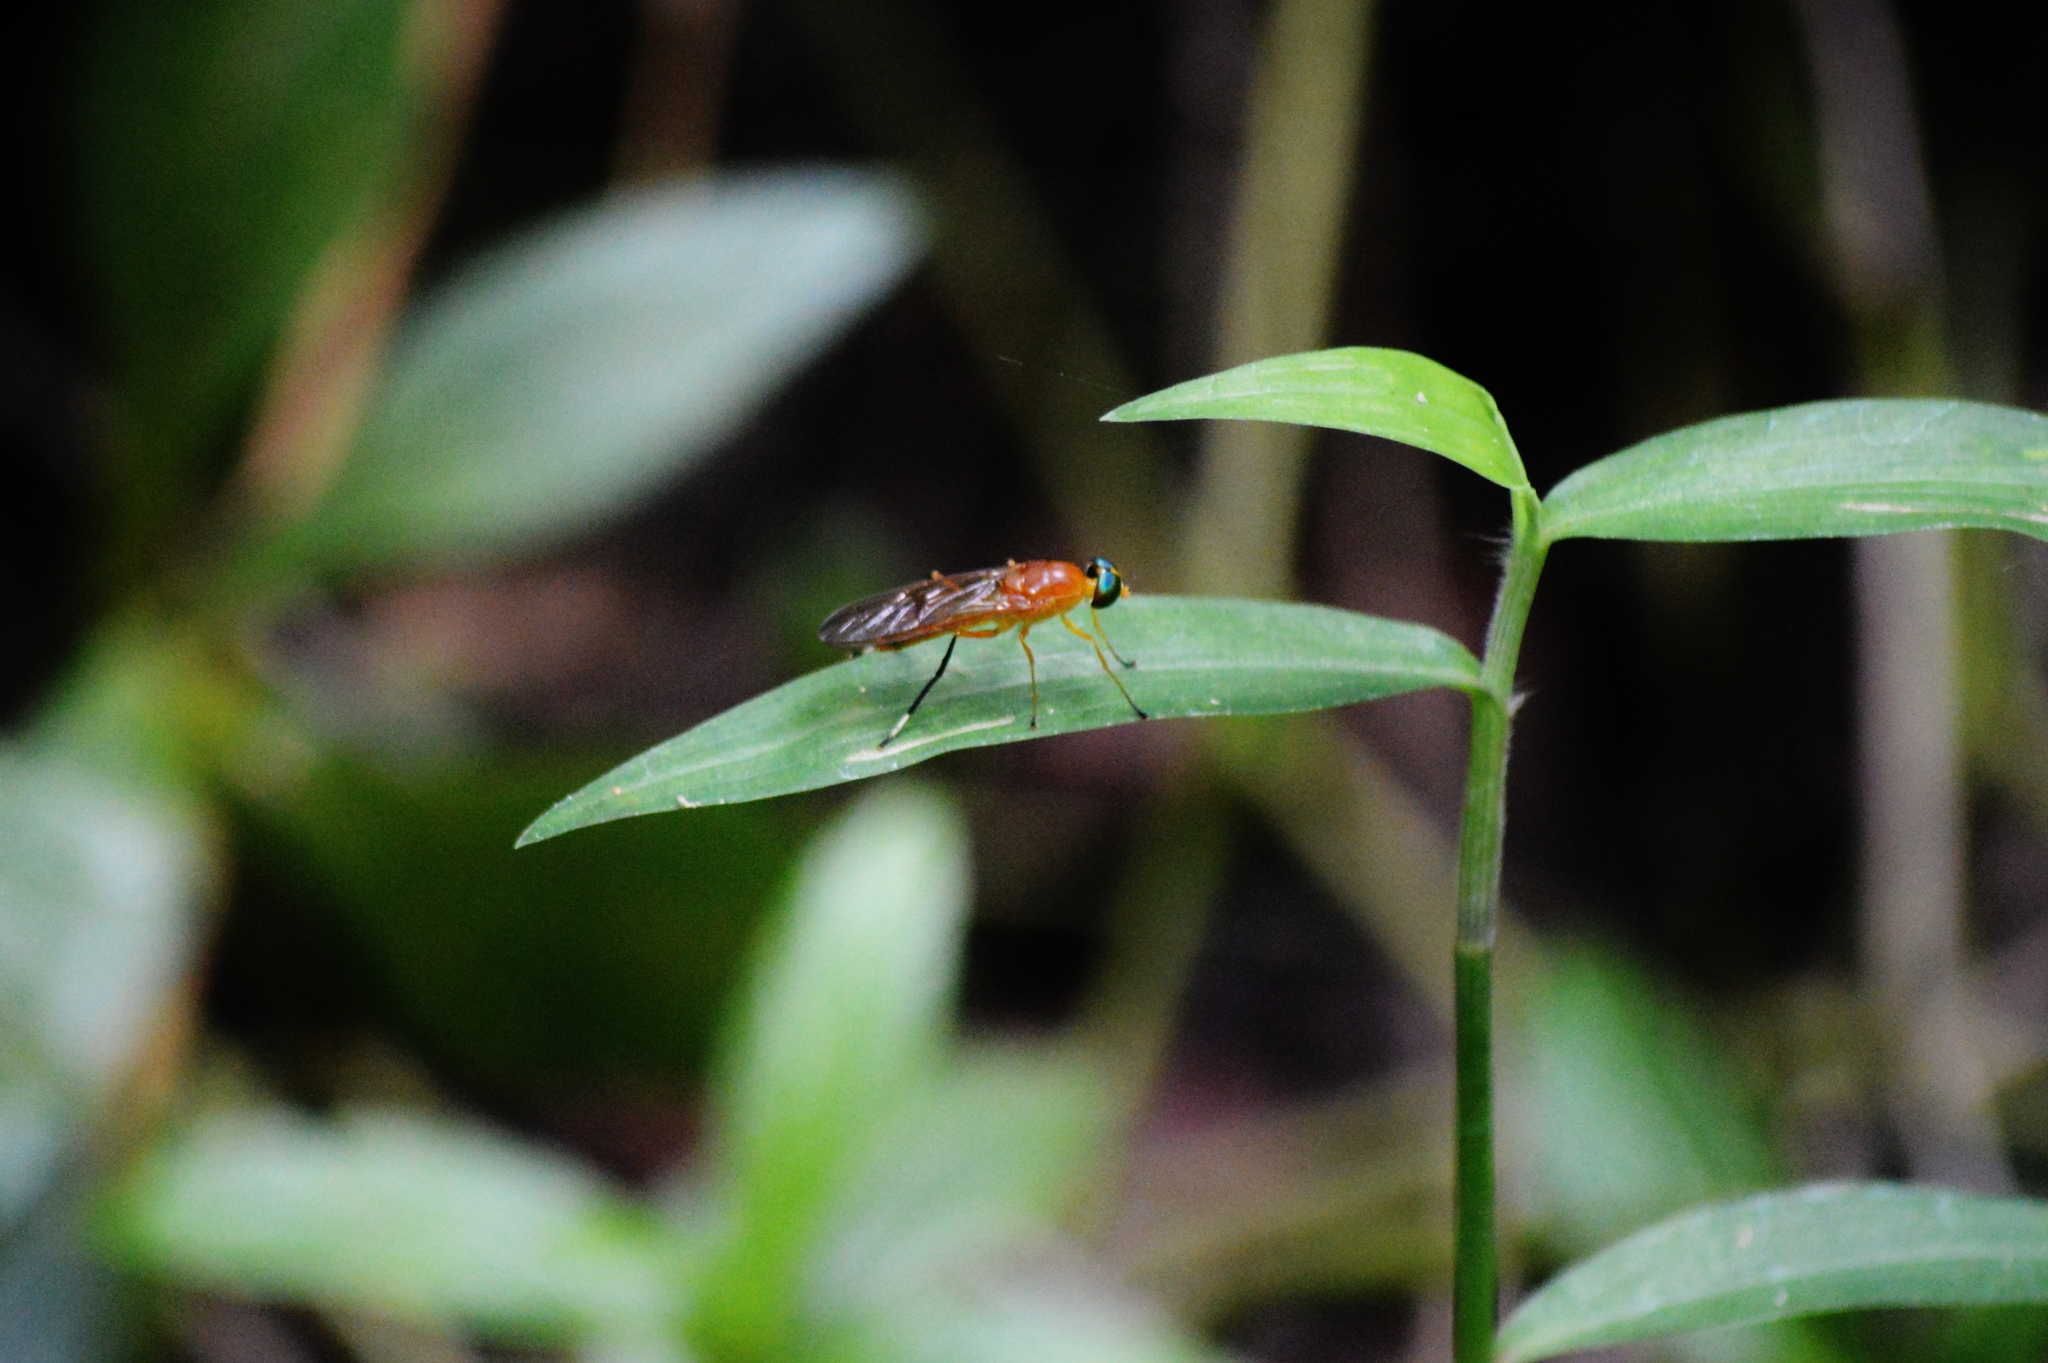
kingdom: Animalia
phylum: Arthropoda
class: Insecta
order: Diptera
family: Stratiomyidae
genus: Ptecticus
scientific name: Ptecticus testaceus
